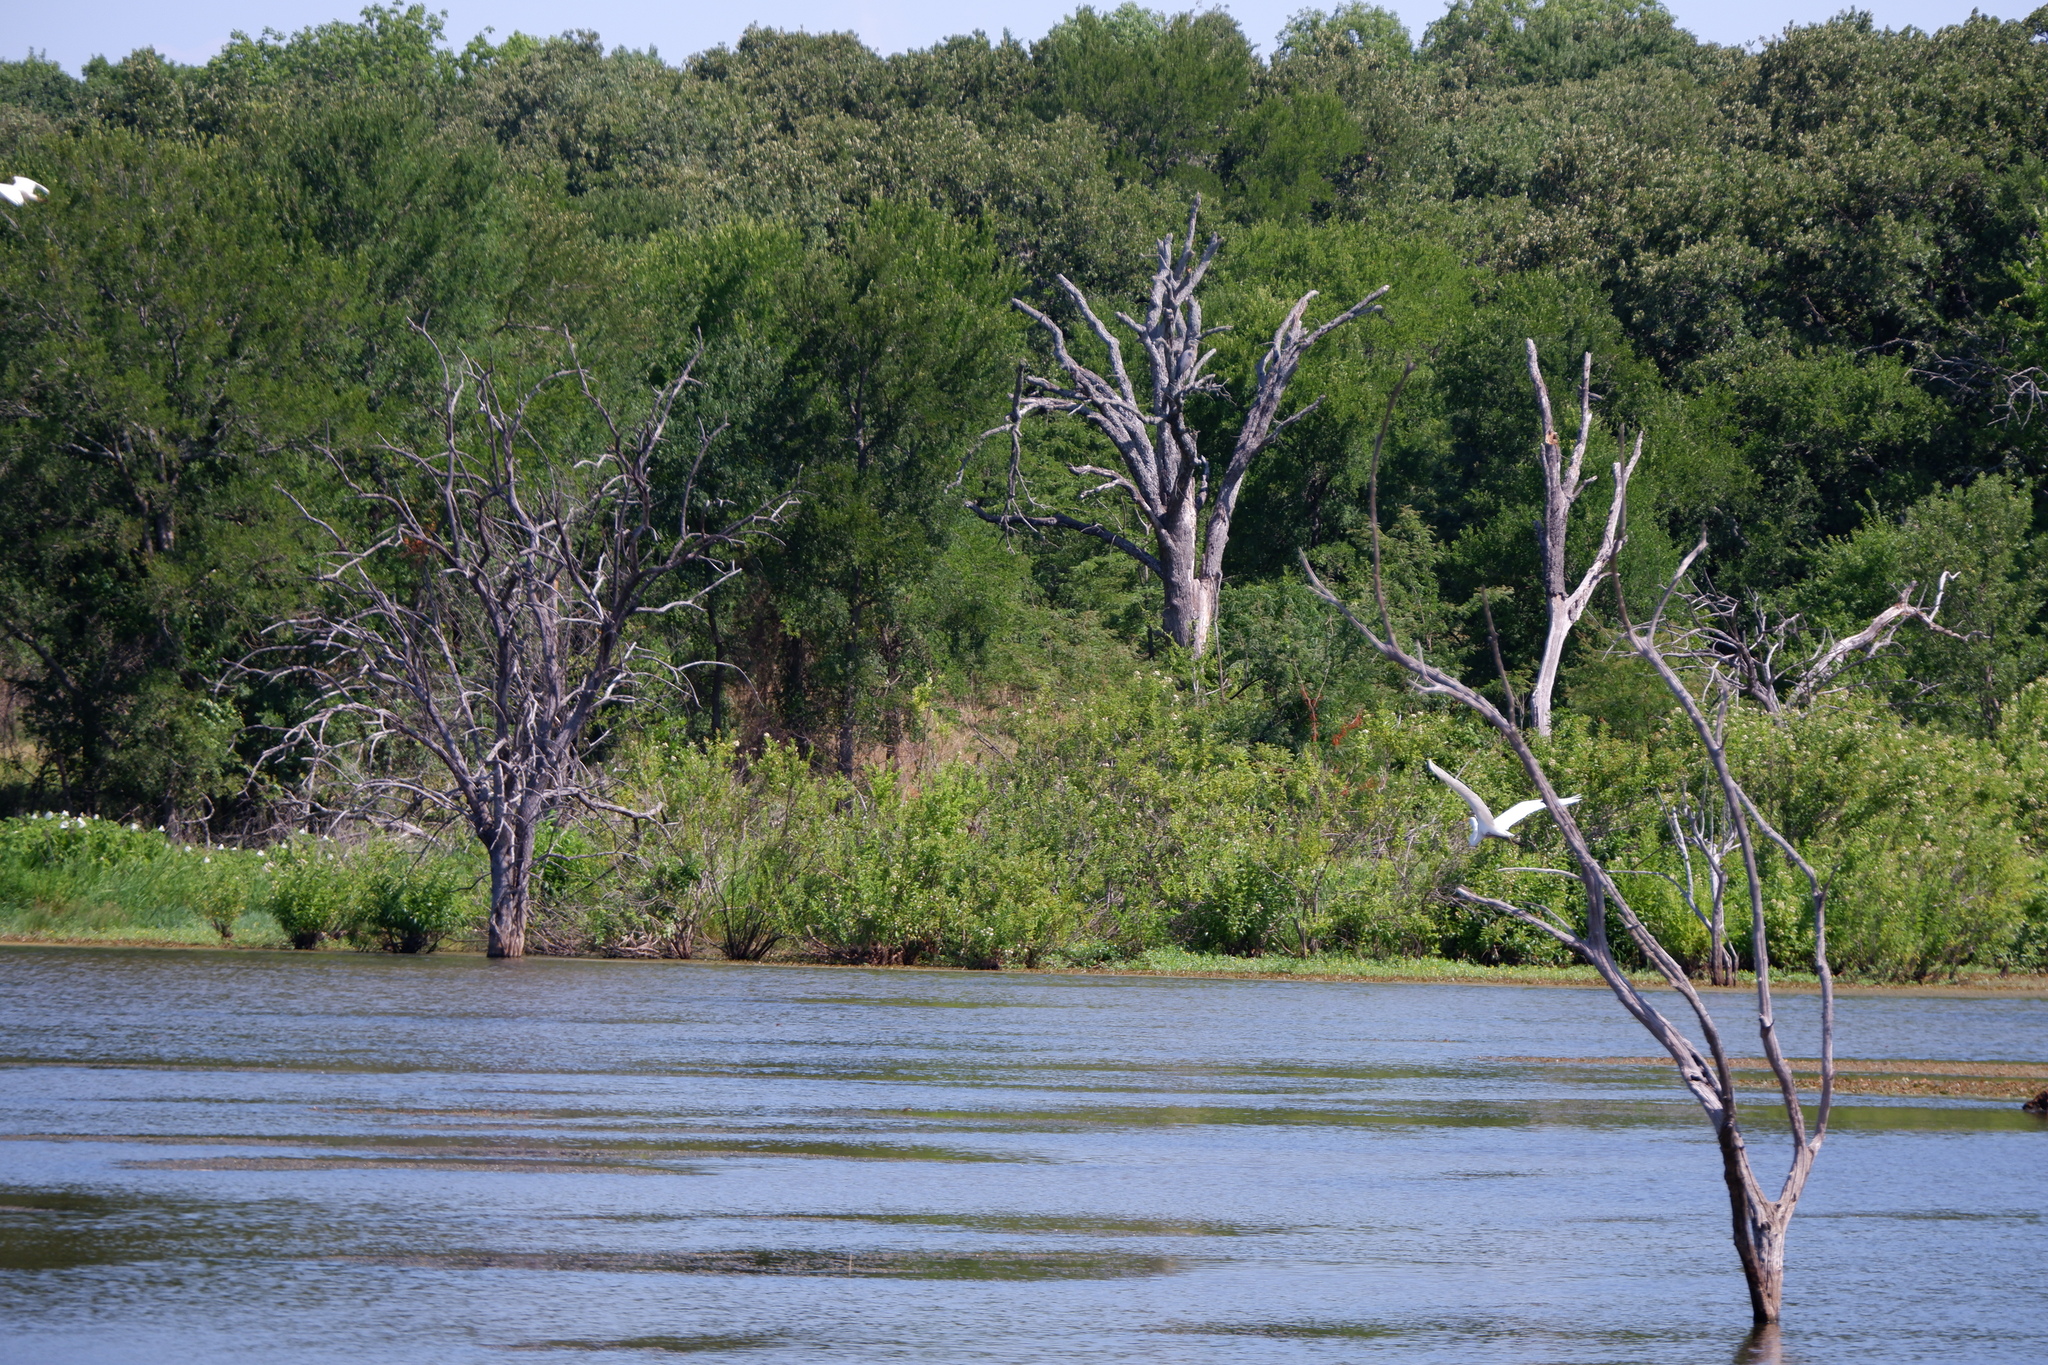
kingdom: Animalia
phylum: Chordata
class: Aves
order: Pelecaniformes
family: Ardeidae
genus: Ardea
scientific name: Ardea alba
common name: Great egret
